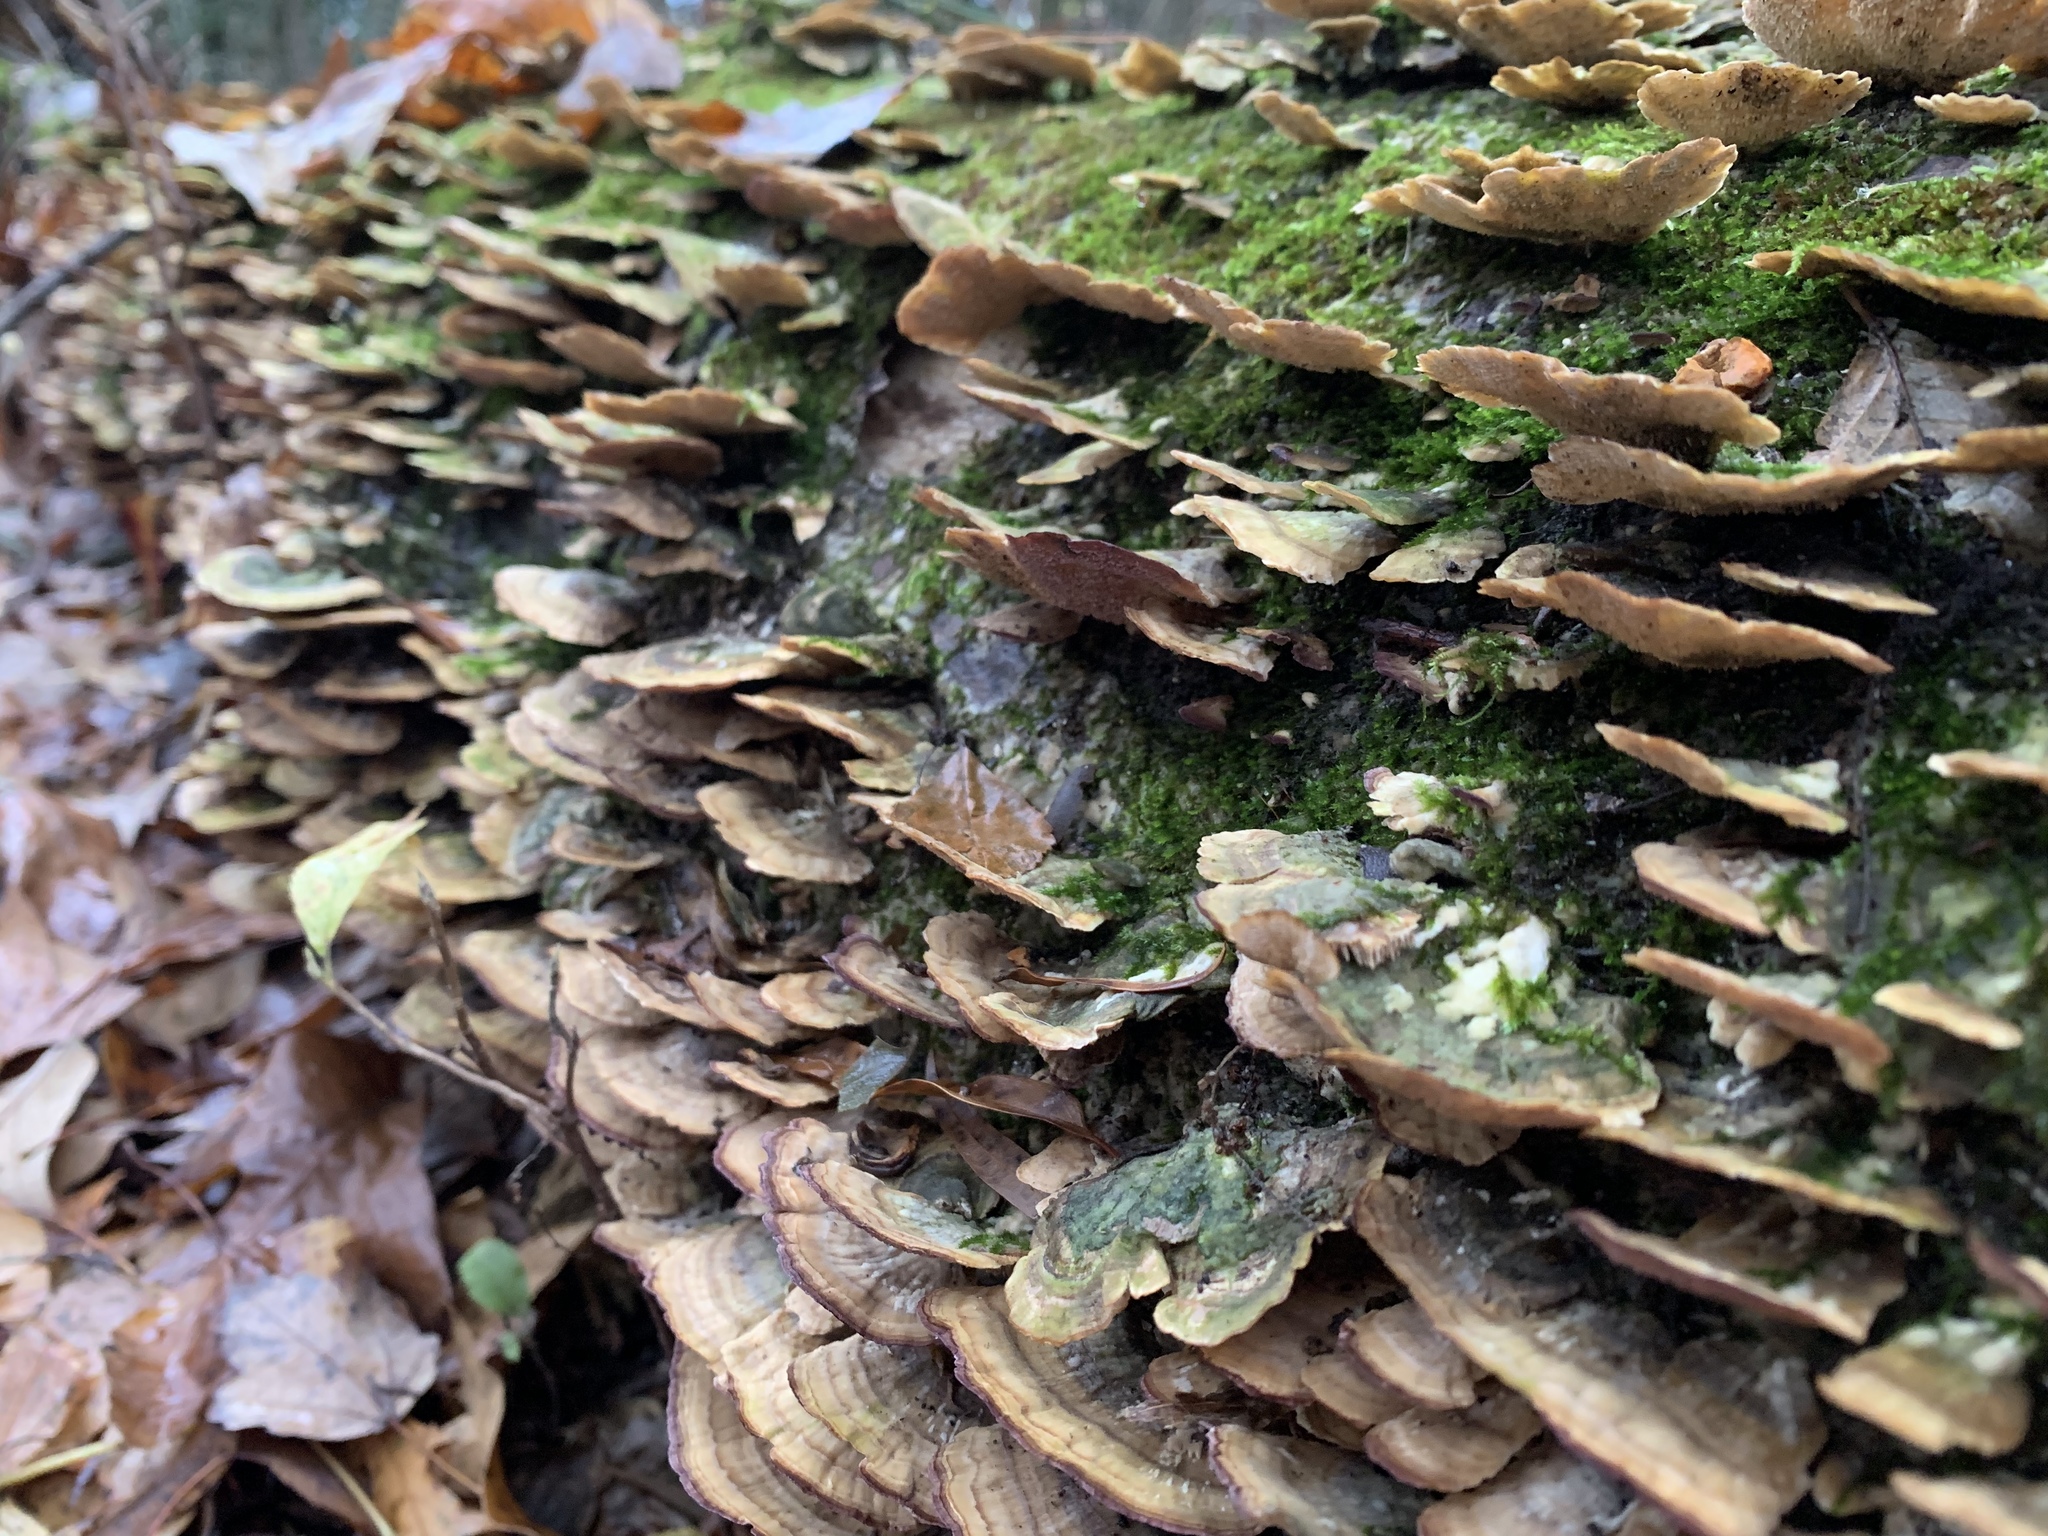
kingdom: Fungi
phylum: Basidiomycota
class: Agaricomycetes
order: Hymenochaetales
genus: Trichaptum
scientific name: Trichaptum biforme
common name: Violet-toothed polypore
